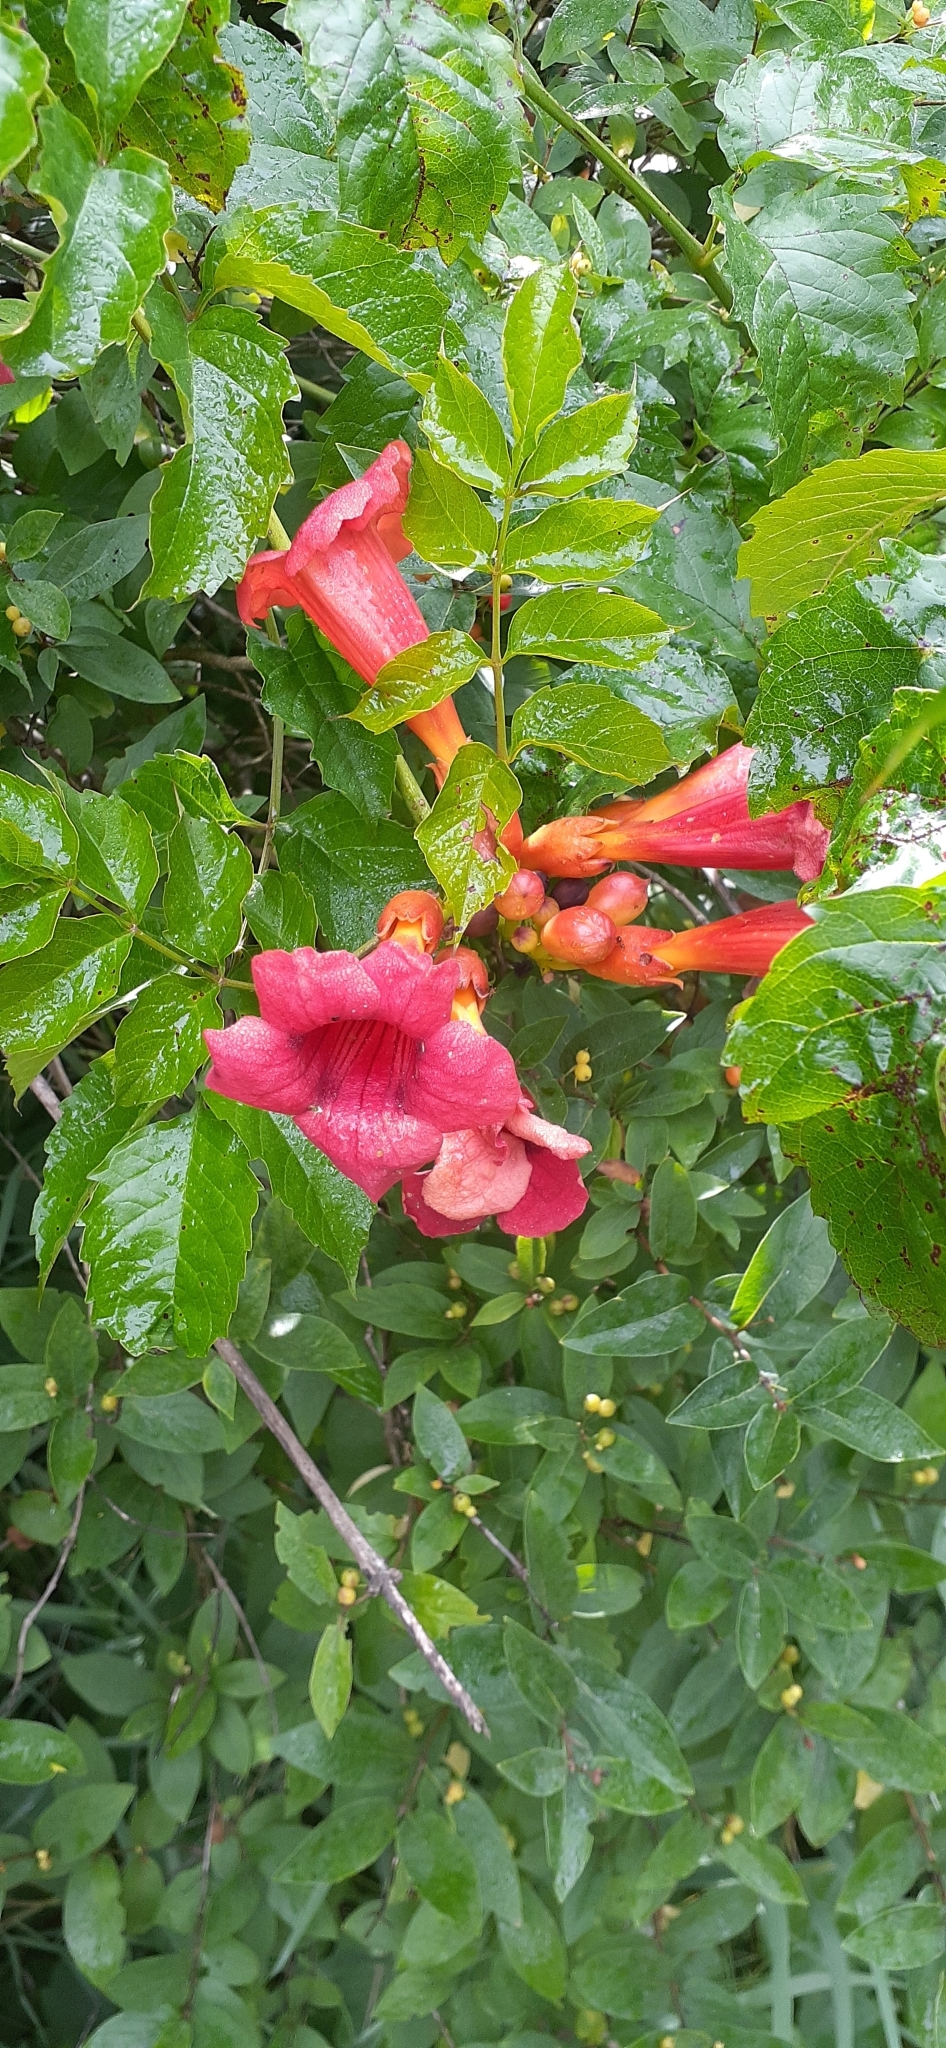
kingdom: Plantae
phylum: Tracheophyta
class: Magnoliopsida
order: Lamiales
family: Bignoniaceae
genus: Campsis
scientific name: Campsis radicans
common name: Trumpet-creeper
